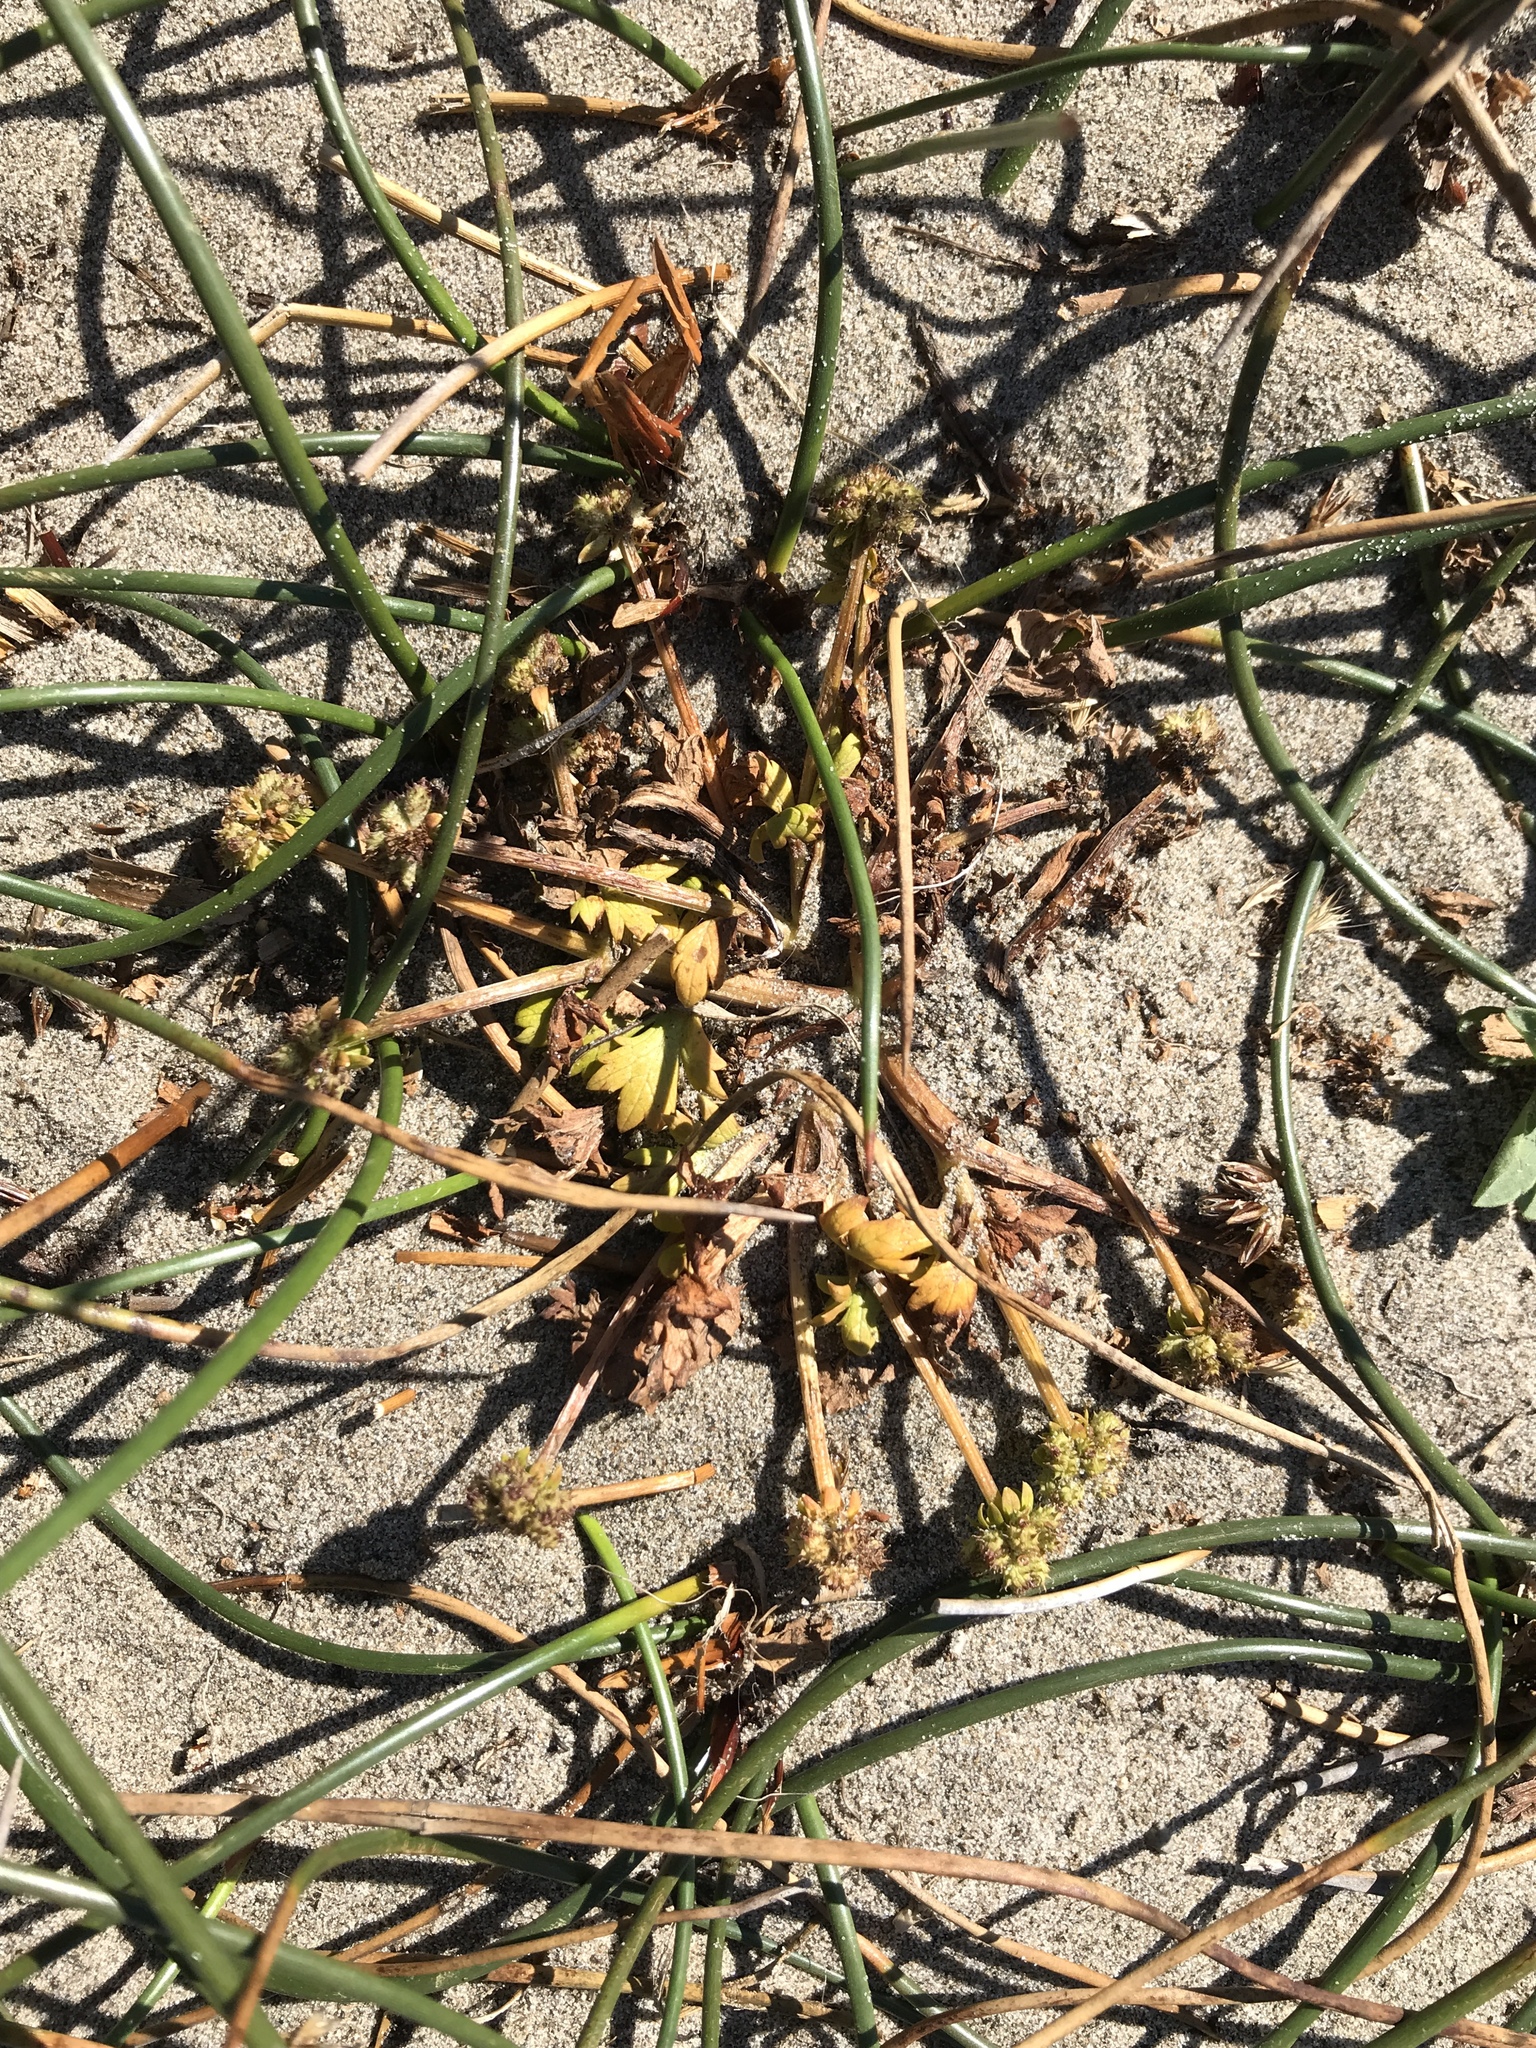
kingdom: Plantae
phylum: Tracheophyta
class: Magnoliopsida
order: Apiales
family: Apiaceae
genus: Sanicula
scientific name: Sanicula arctopoides
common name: Footsteps-of-spring
